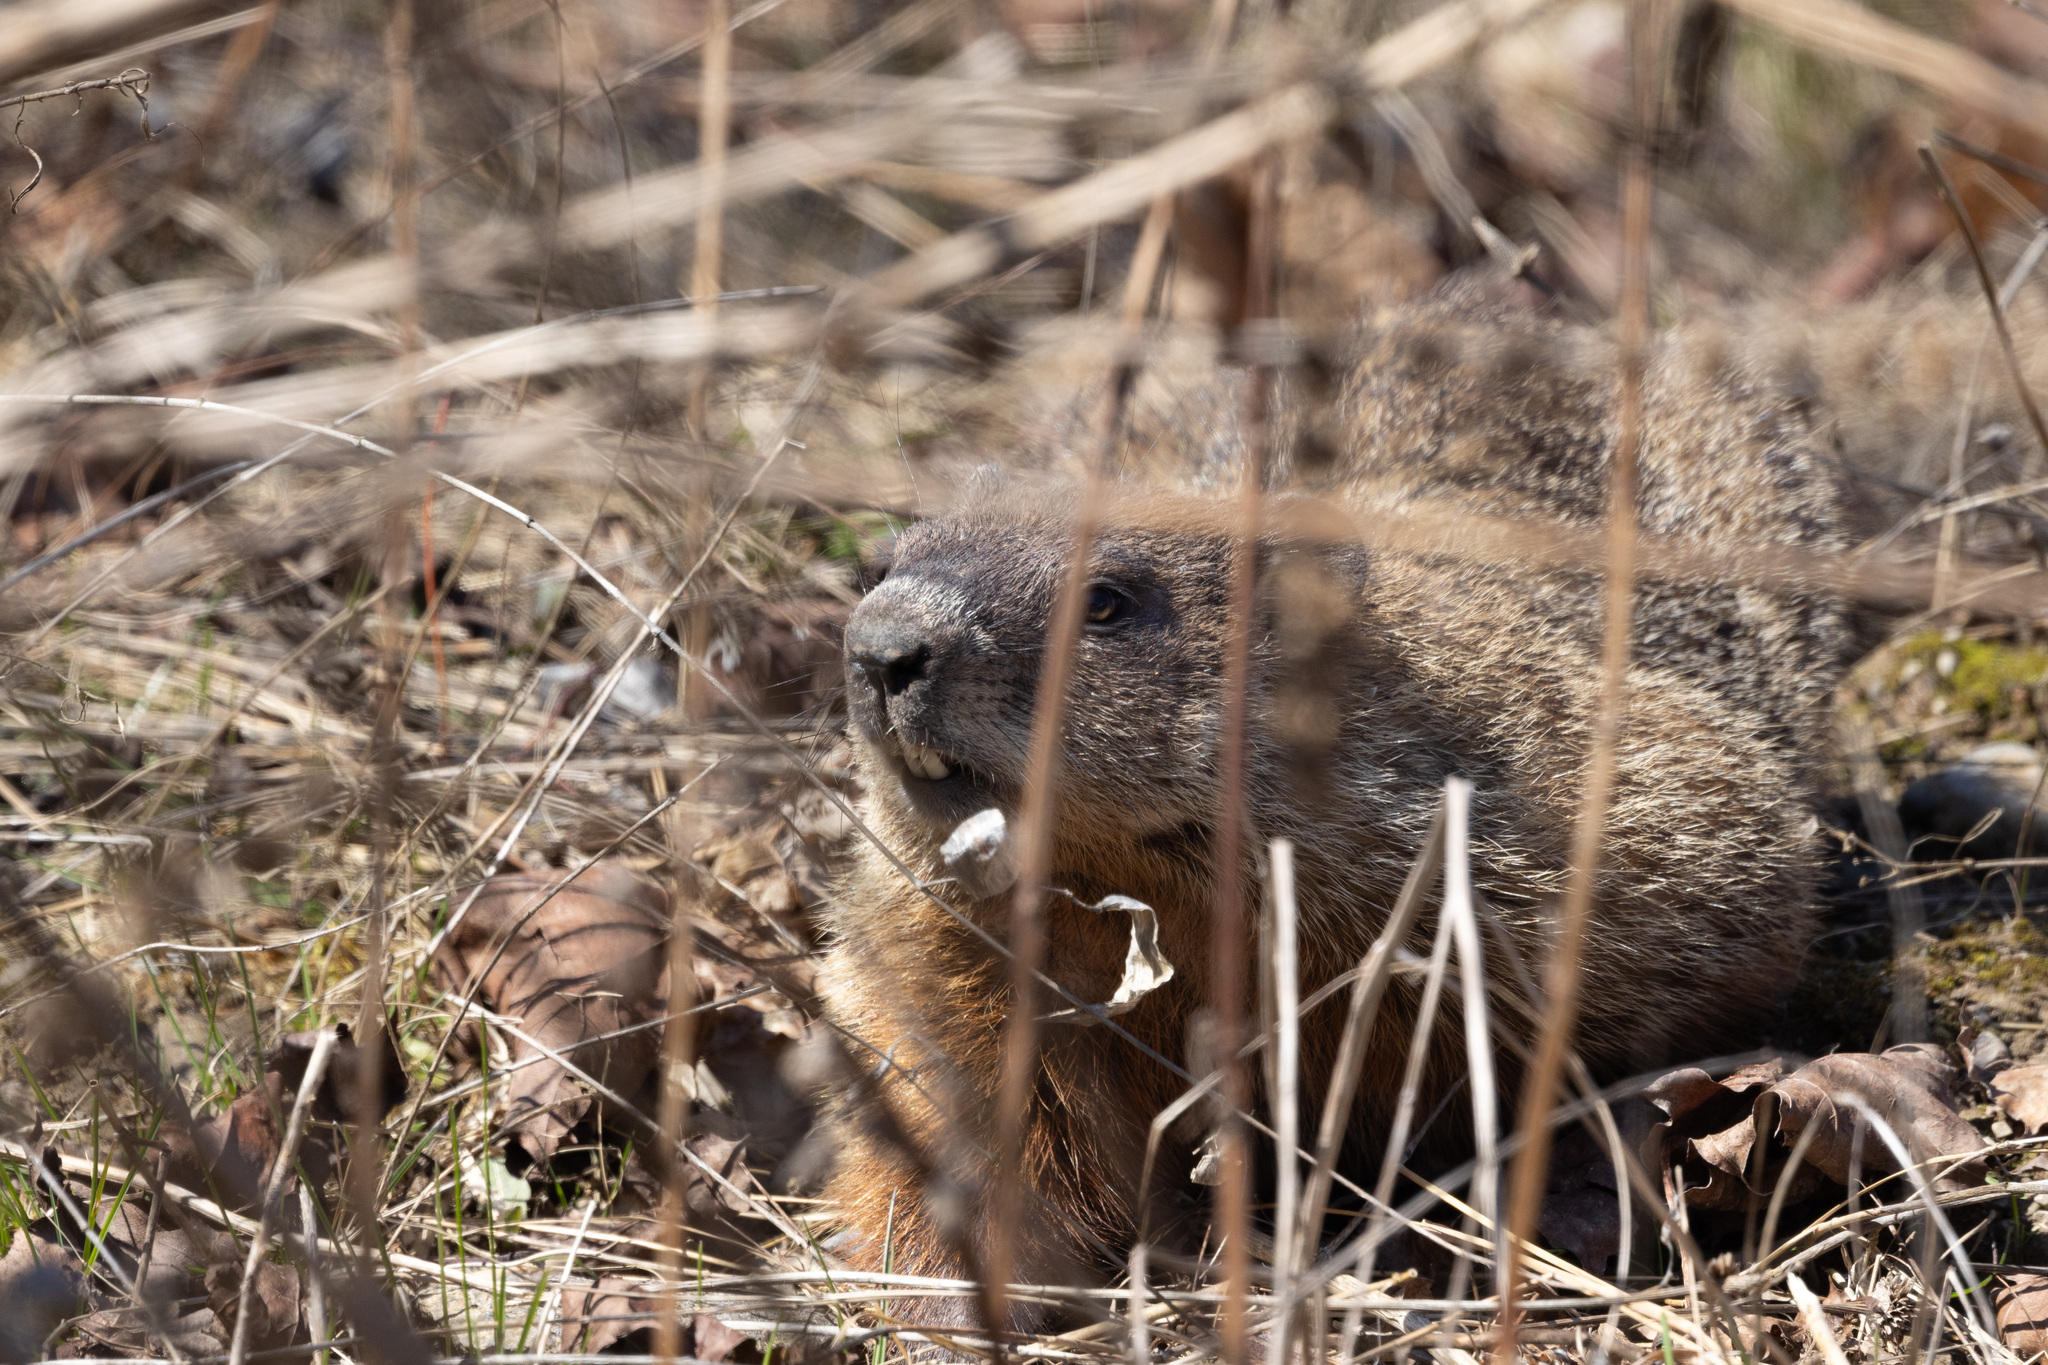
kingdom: Animalia
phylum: Chordata
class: Mammalia
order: Rodentia
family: Sciuridae
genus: Marmota
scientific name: Marmota monax
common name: Groundhog
